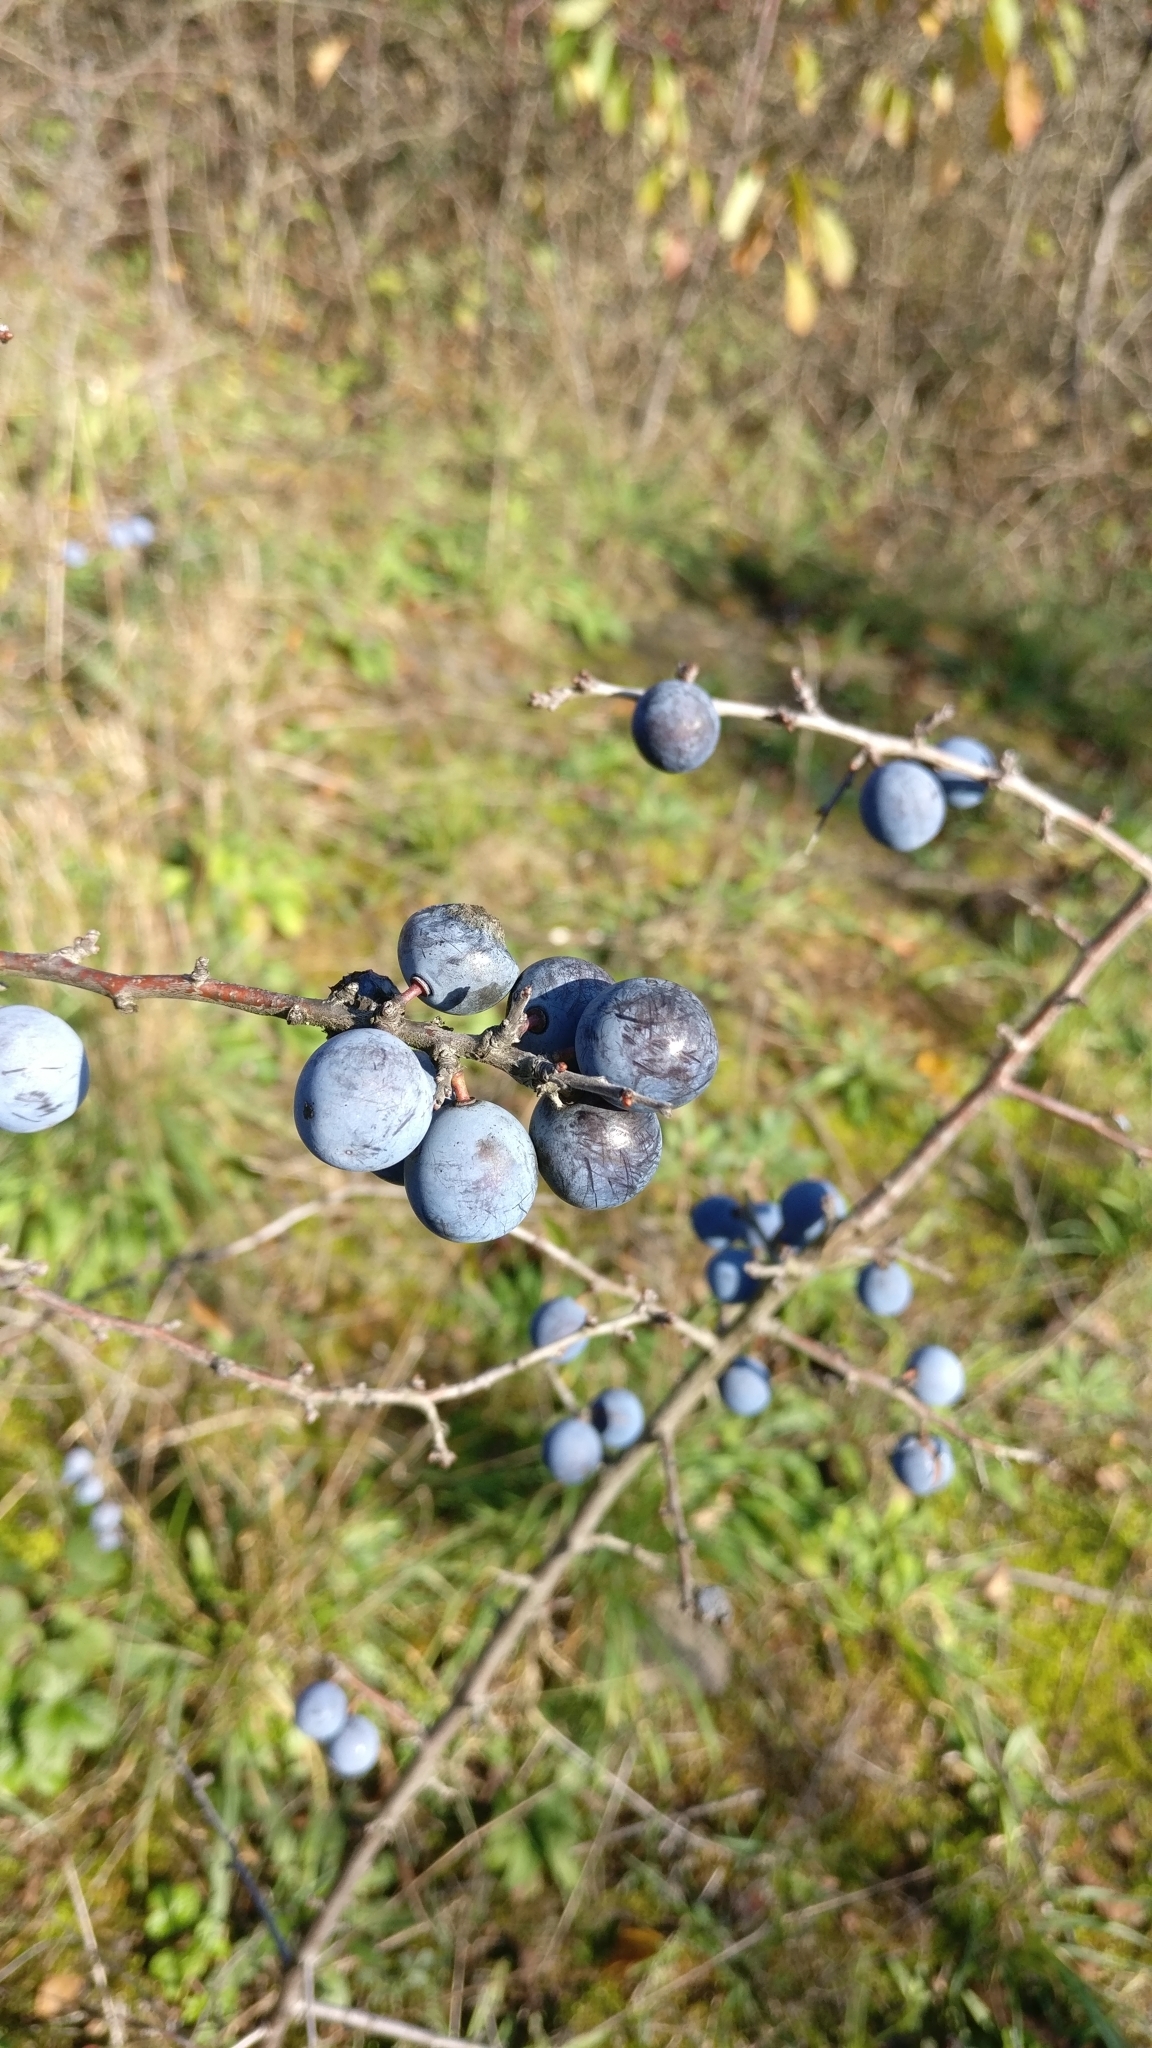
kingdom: Plantae
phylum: Tracheophyta
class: Magnoliopsida
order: Rosales
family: Rosaceae
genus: Prunus
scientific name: Prunus spinosa
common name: Blackthorn
